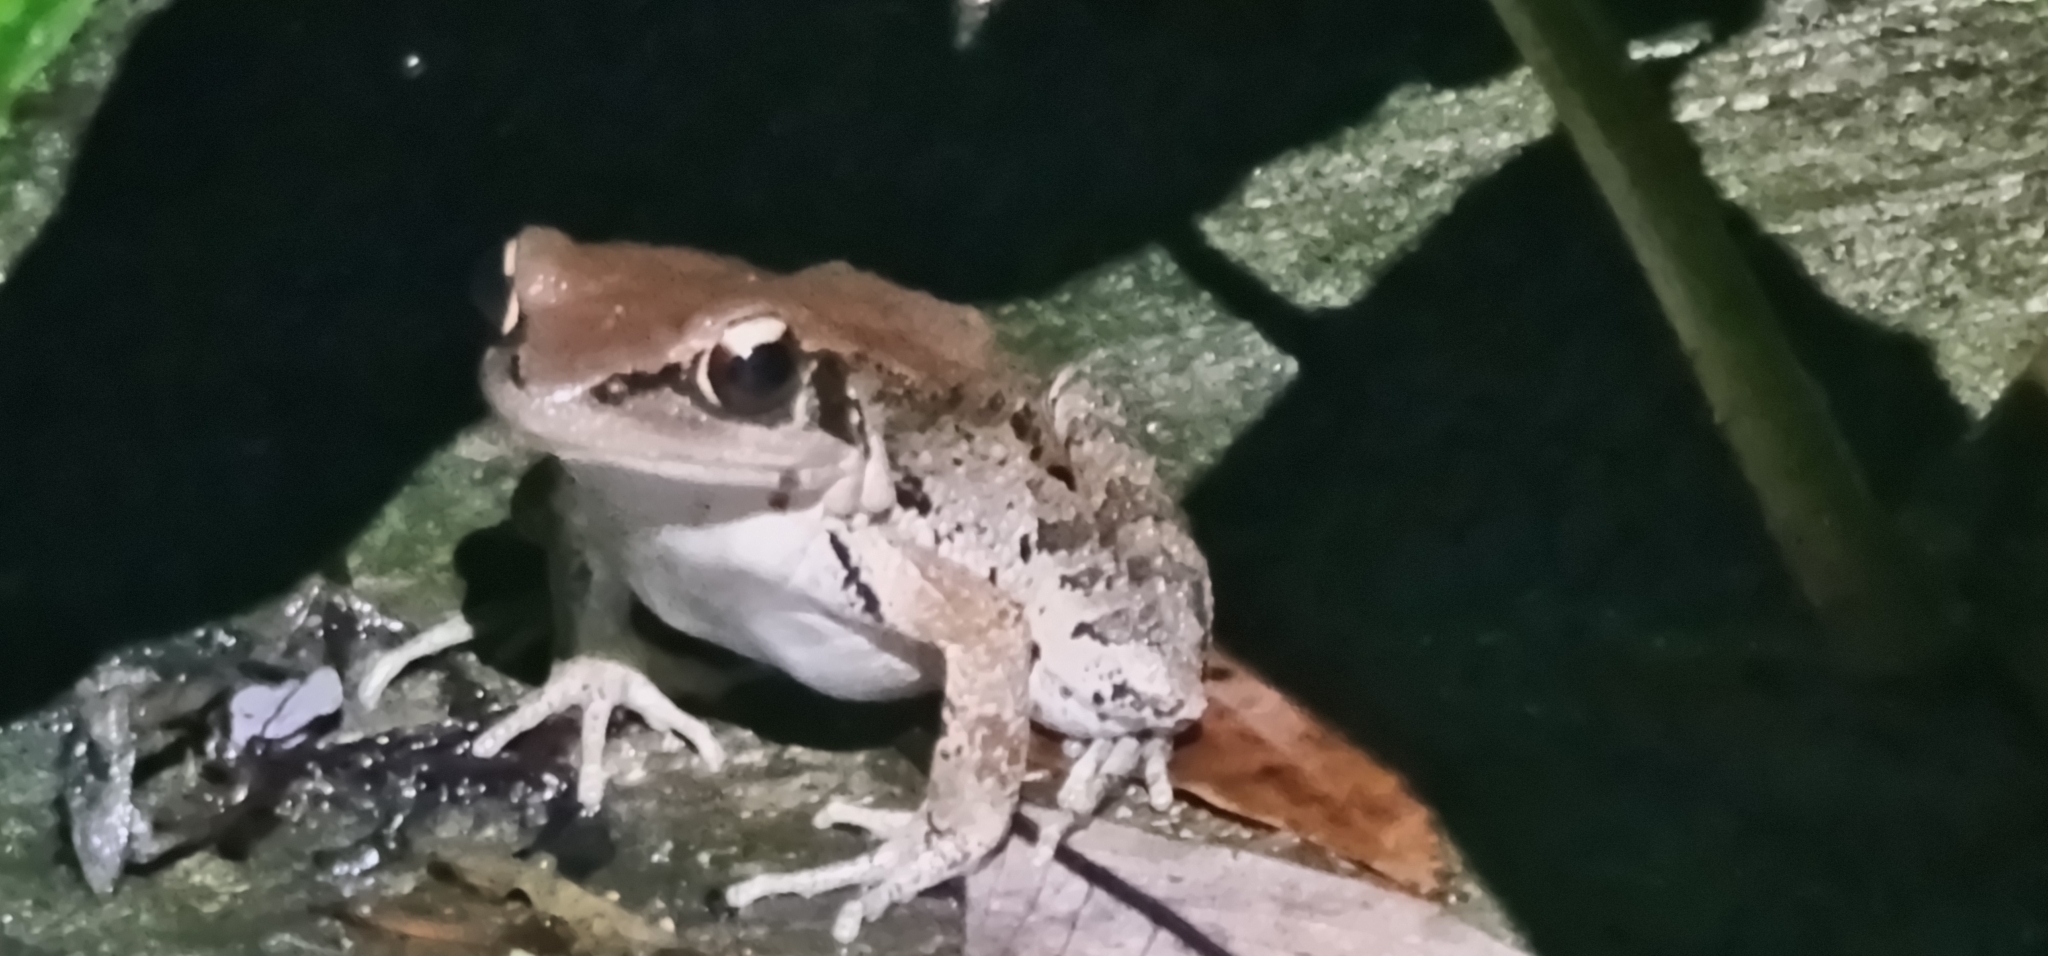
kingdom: Animalia
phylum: Chordata
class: Amphibia
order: Anura
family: Ranidae
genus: Hylarana
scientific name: Hylarana latouchii
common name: Broad-folded frog
